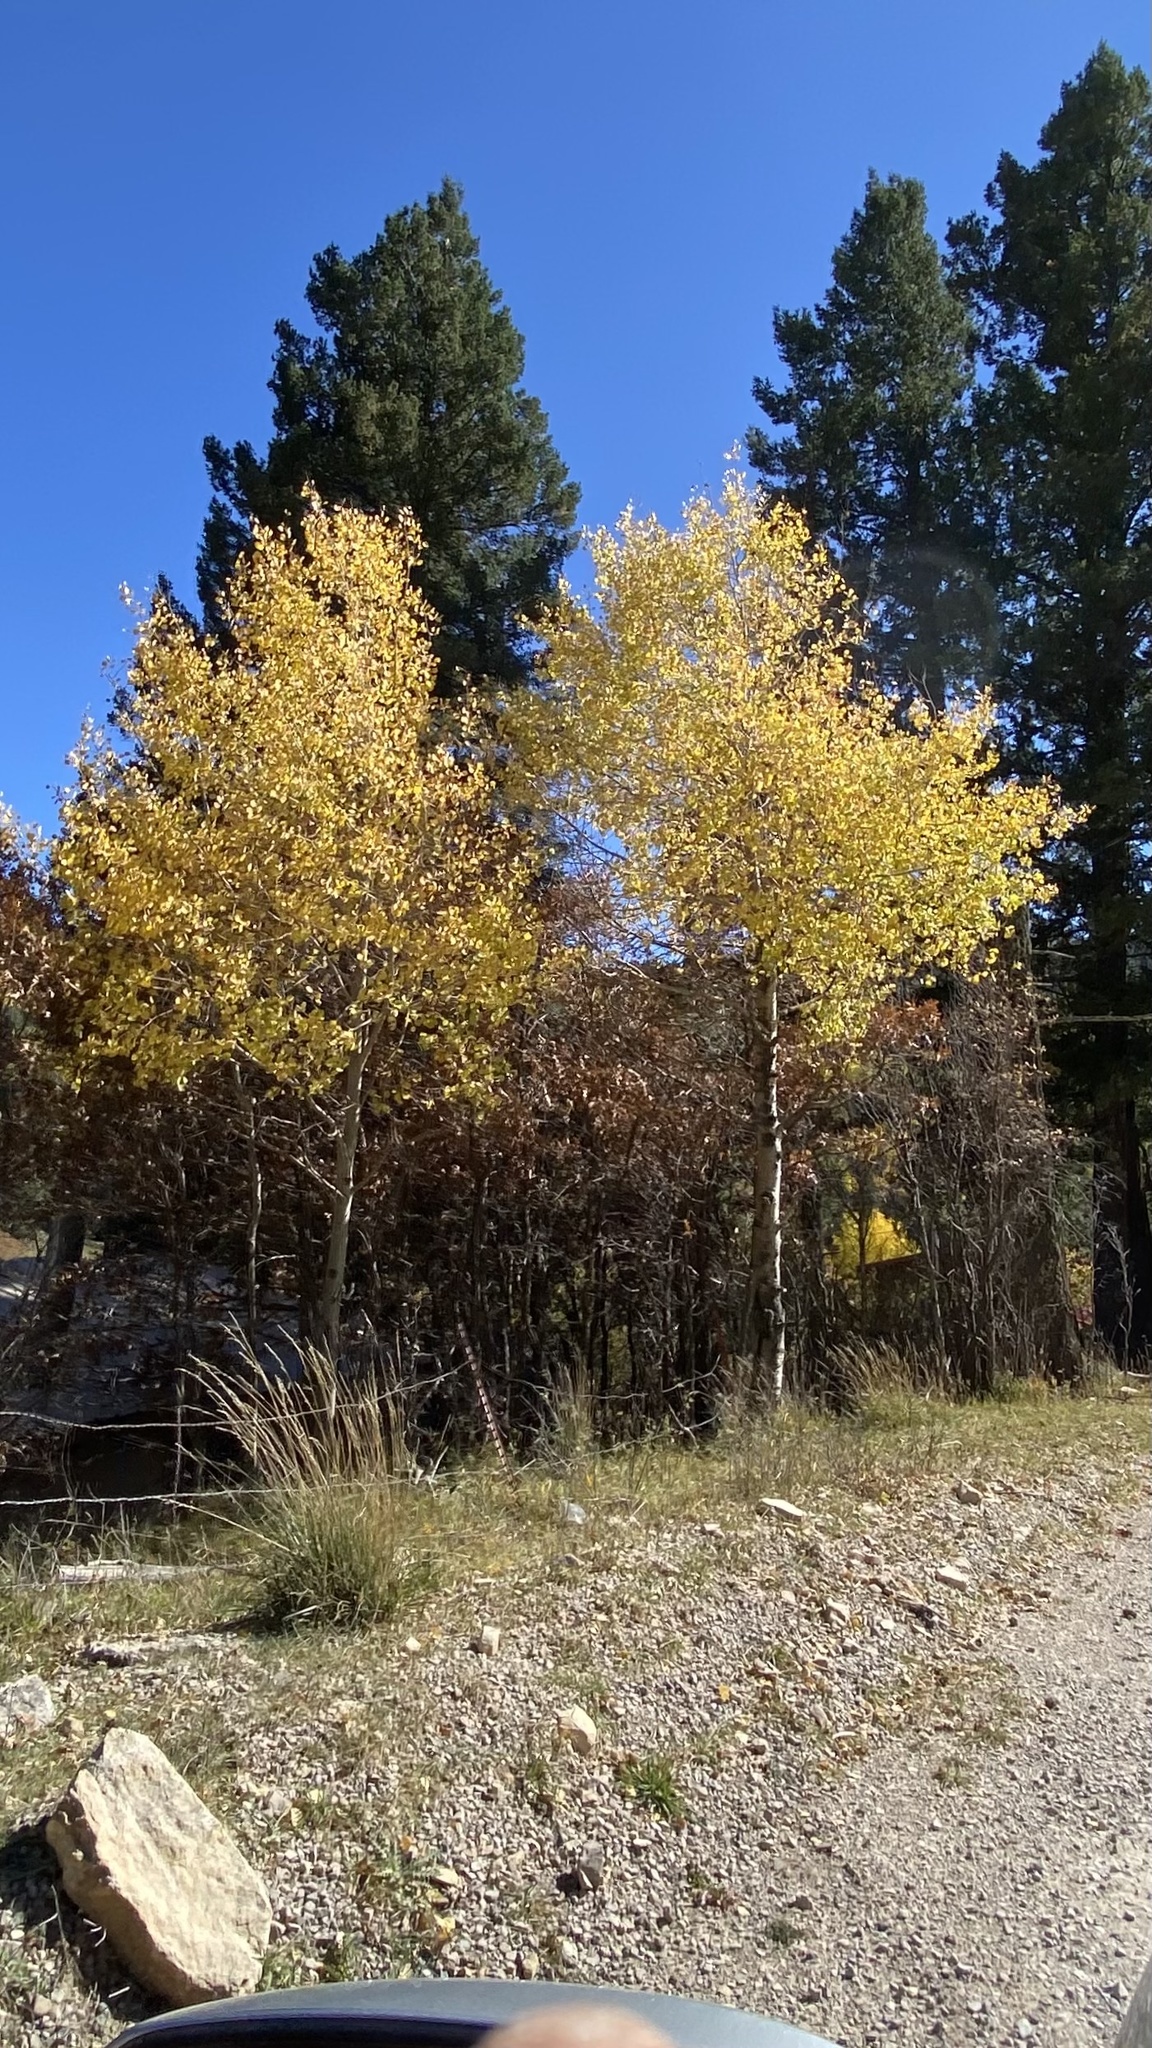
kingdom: Plantae
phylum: Tracheophyta
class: Magnoliopsida
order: Malpighiales
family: Salicaceae
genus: Populus
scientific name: Populus tremuloides
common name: Quaking aspen
